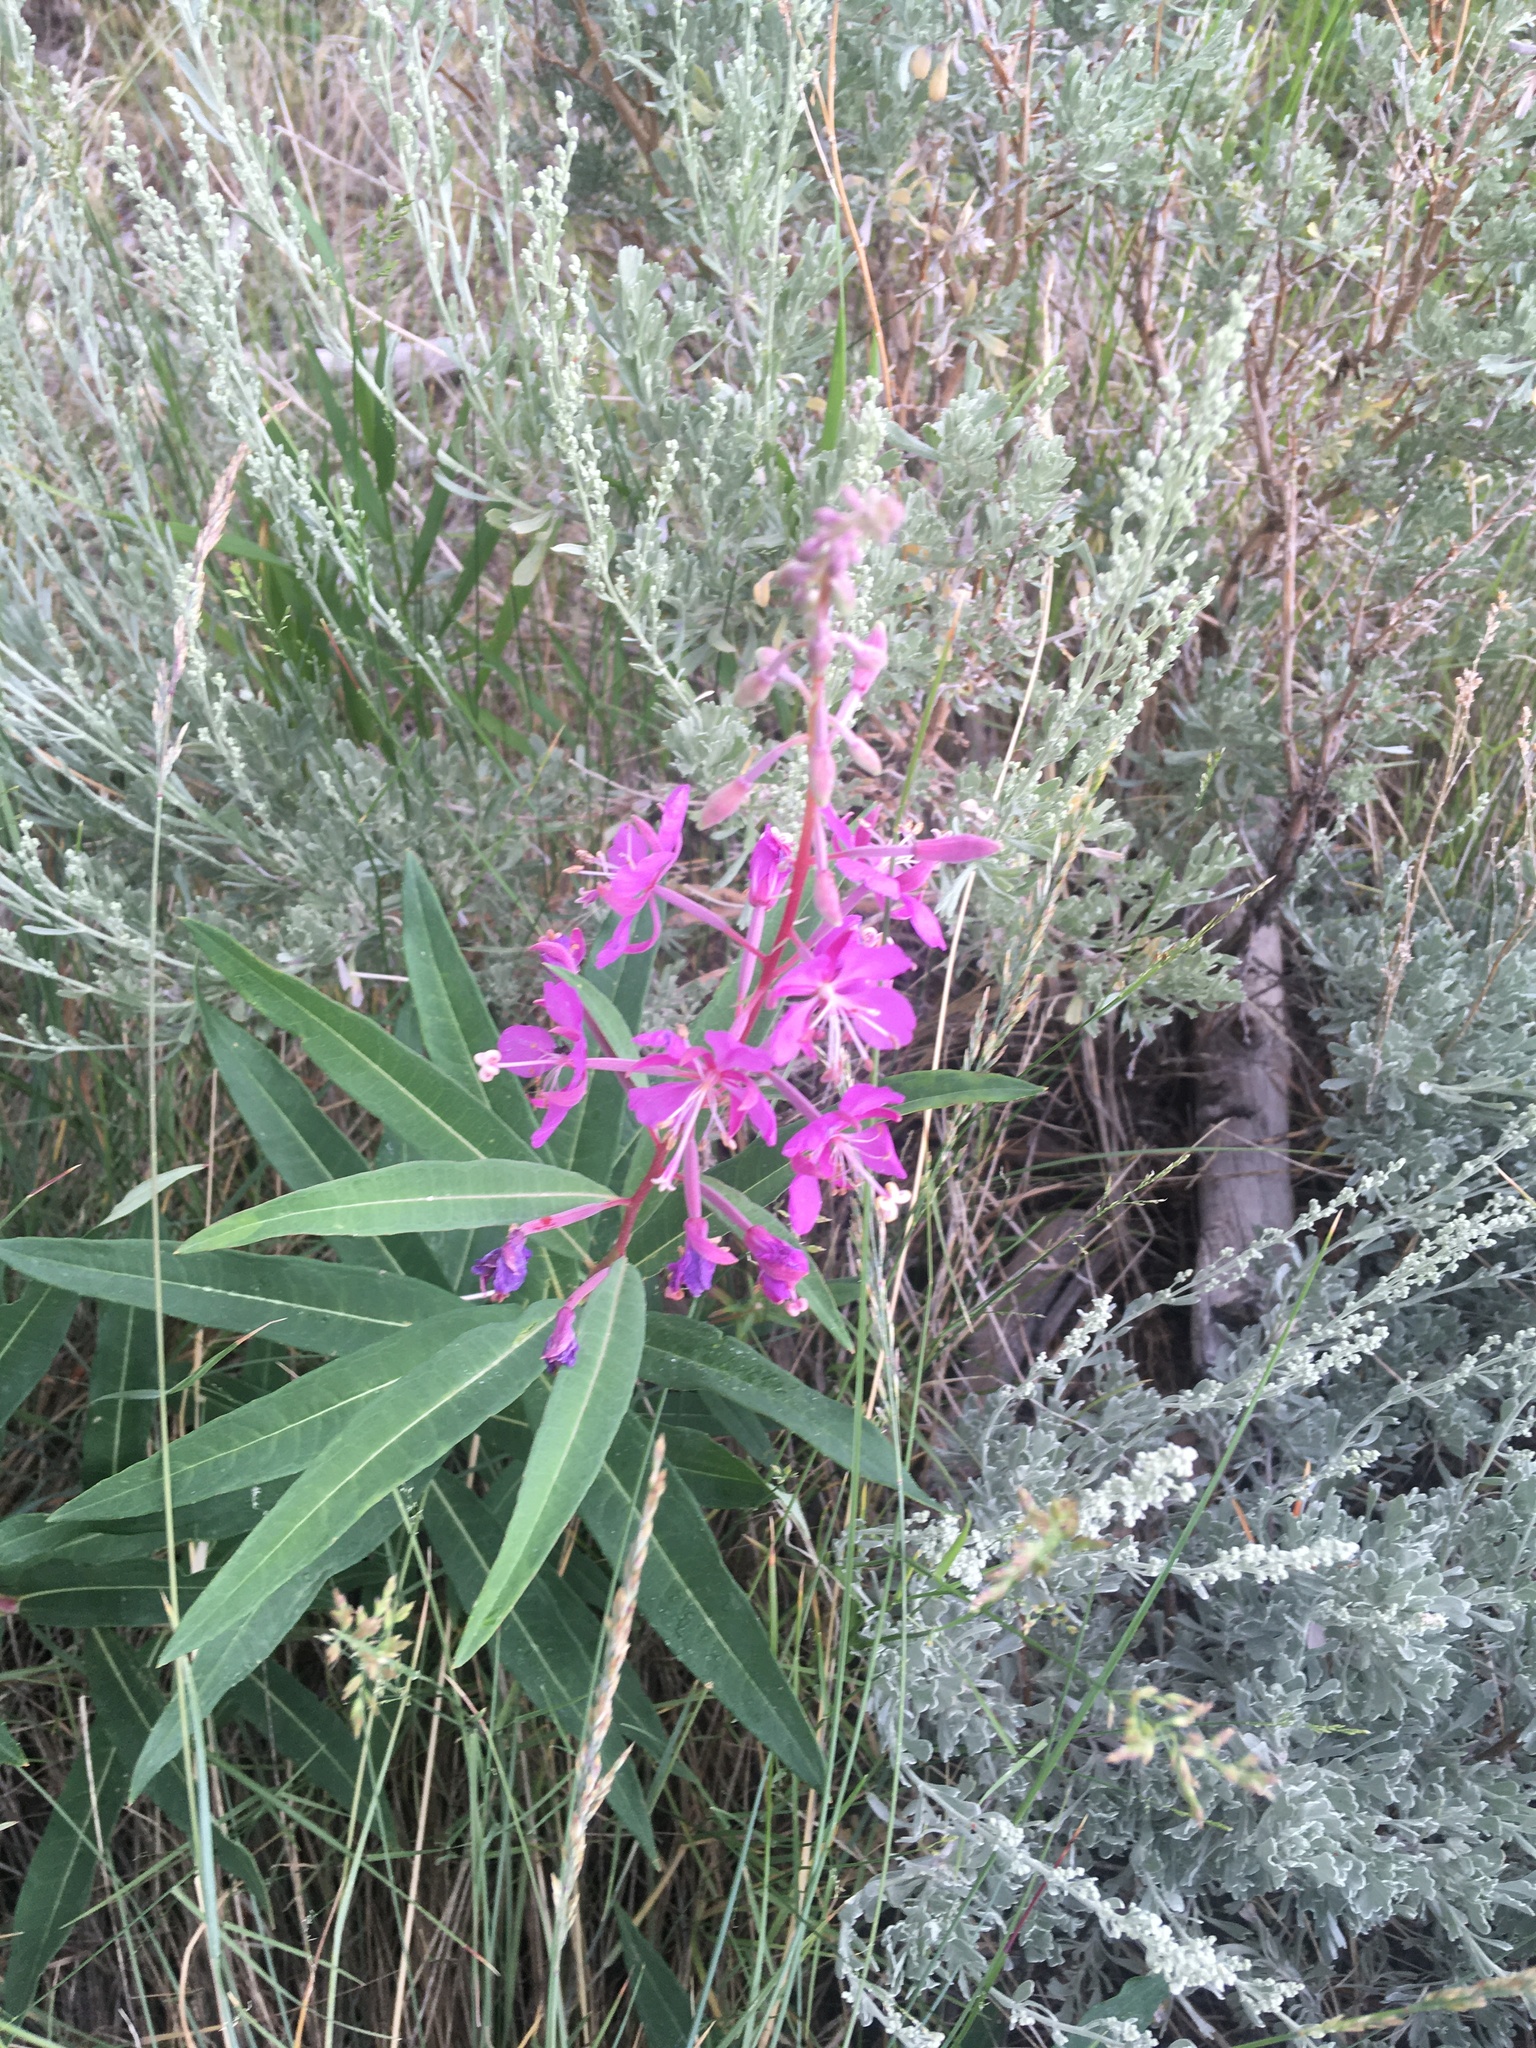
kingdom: Plantae
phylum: Tracheophyta
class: Magnoliopsida
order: Myrtales
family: Onagraceae
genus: Chamaenerion
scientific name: Chamaenerion angustifolium
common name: Fireweed
